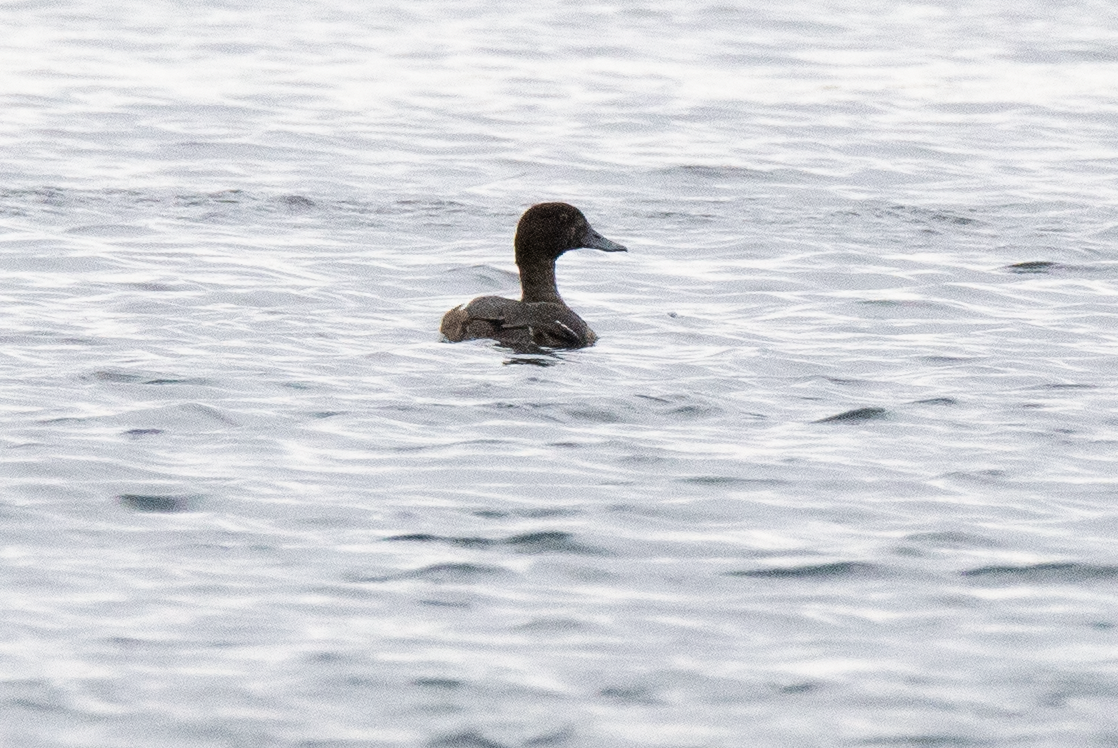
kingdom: Animalia
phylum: Chordata
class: Aves
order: Anseriformes
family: Anatidae
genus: Aythya
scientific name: Aythya fuligula
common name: Tufted duck
